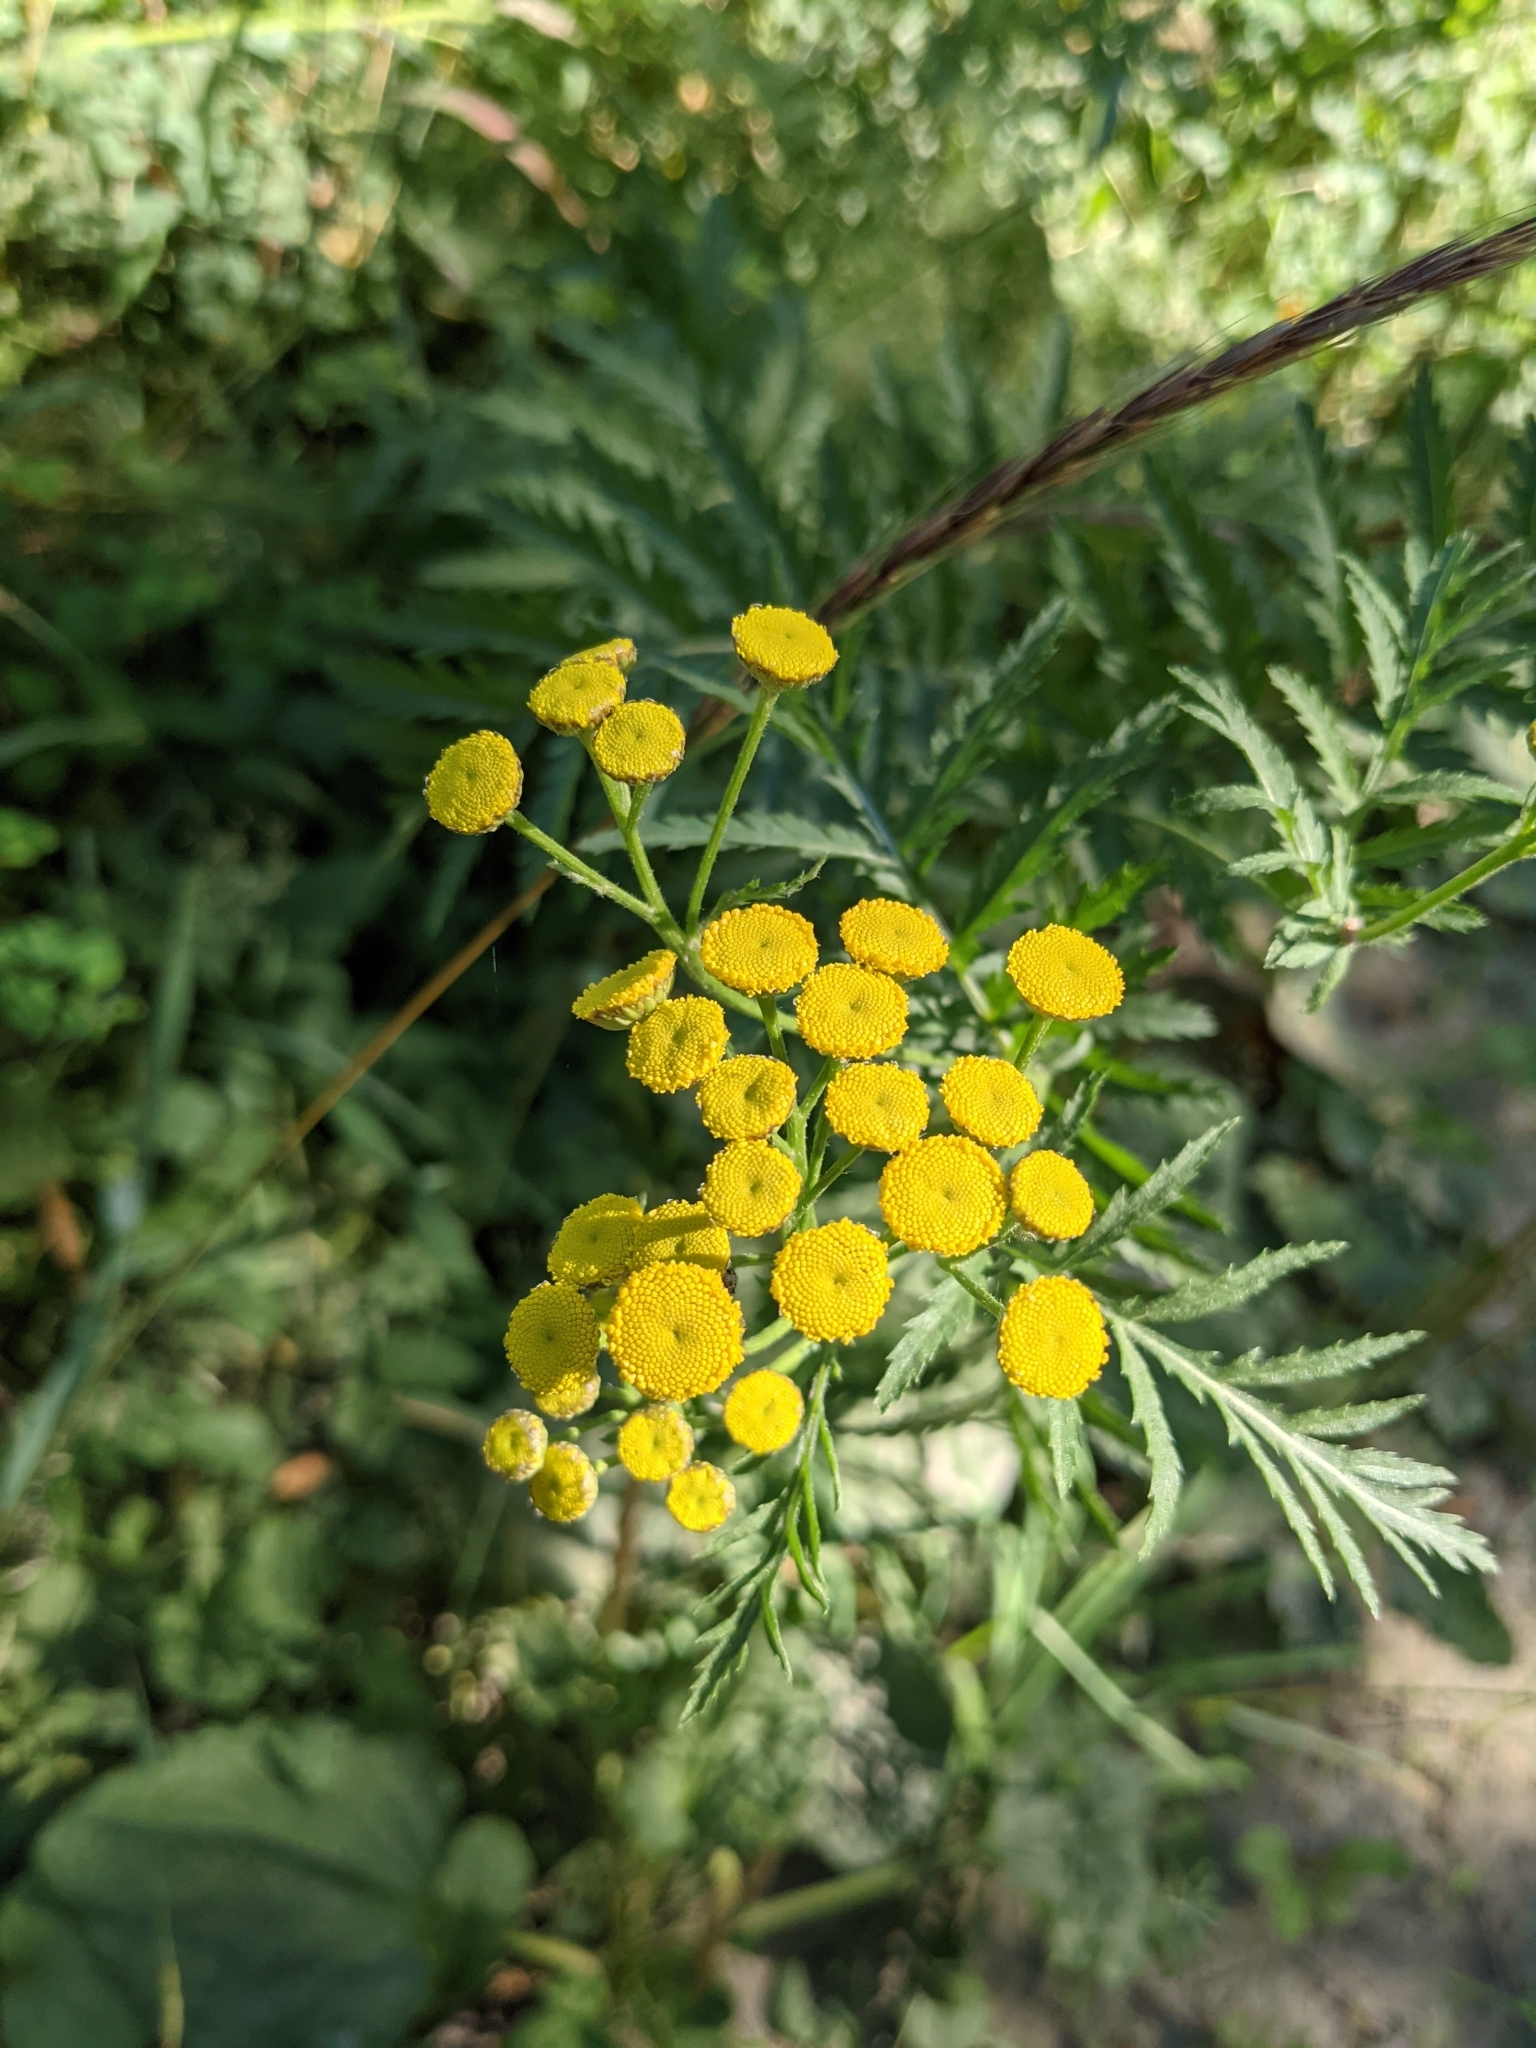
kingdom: Plantae
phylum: Tracheophyta
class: Magnoliopsida
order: Asterales
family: Asteraceae
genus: Tanacetum
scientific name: Tanacetum vulgare
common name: Common tansy
